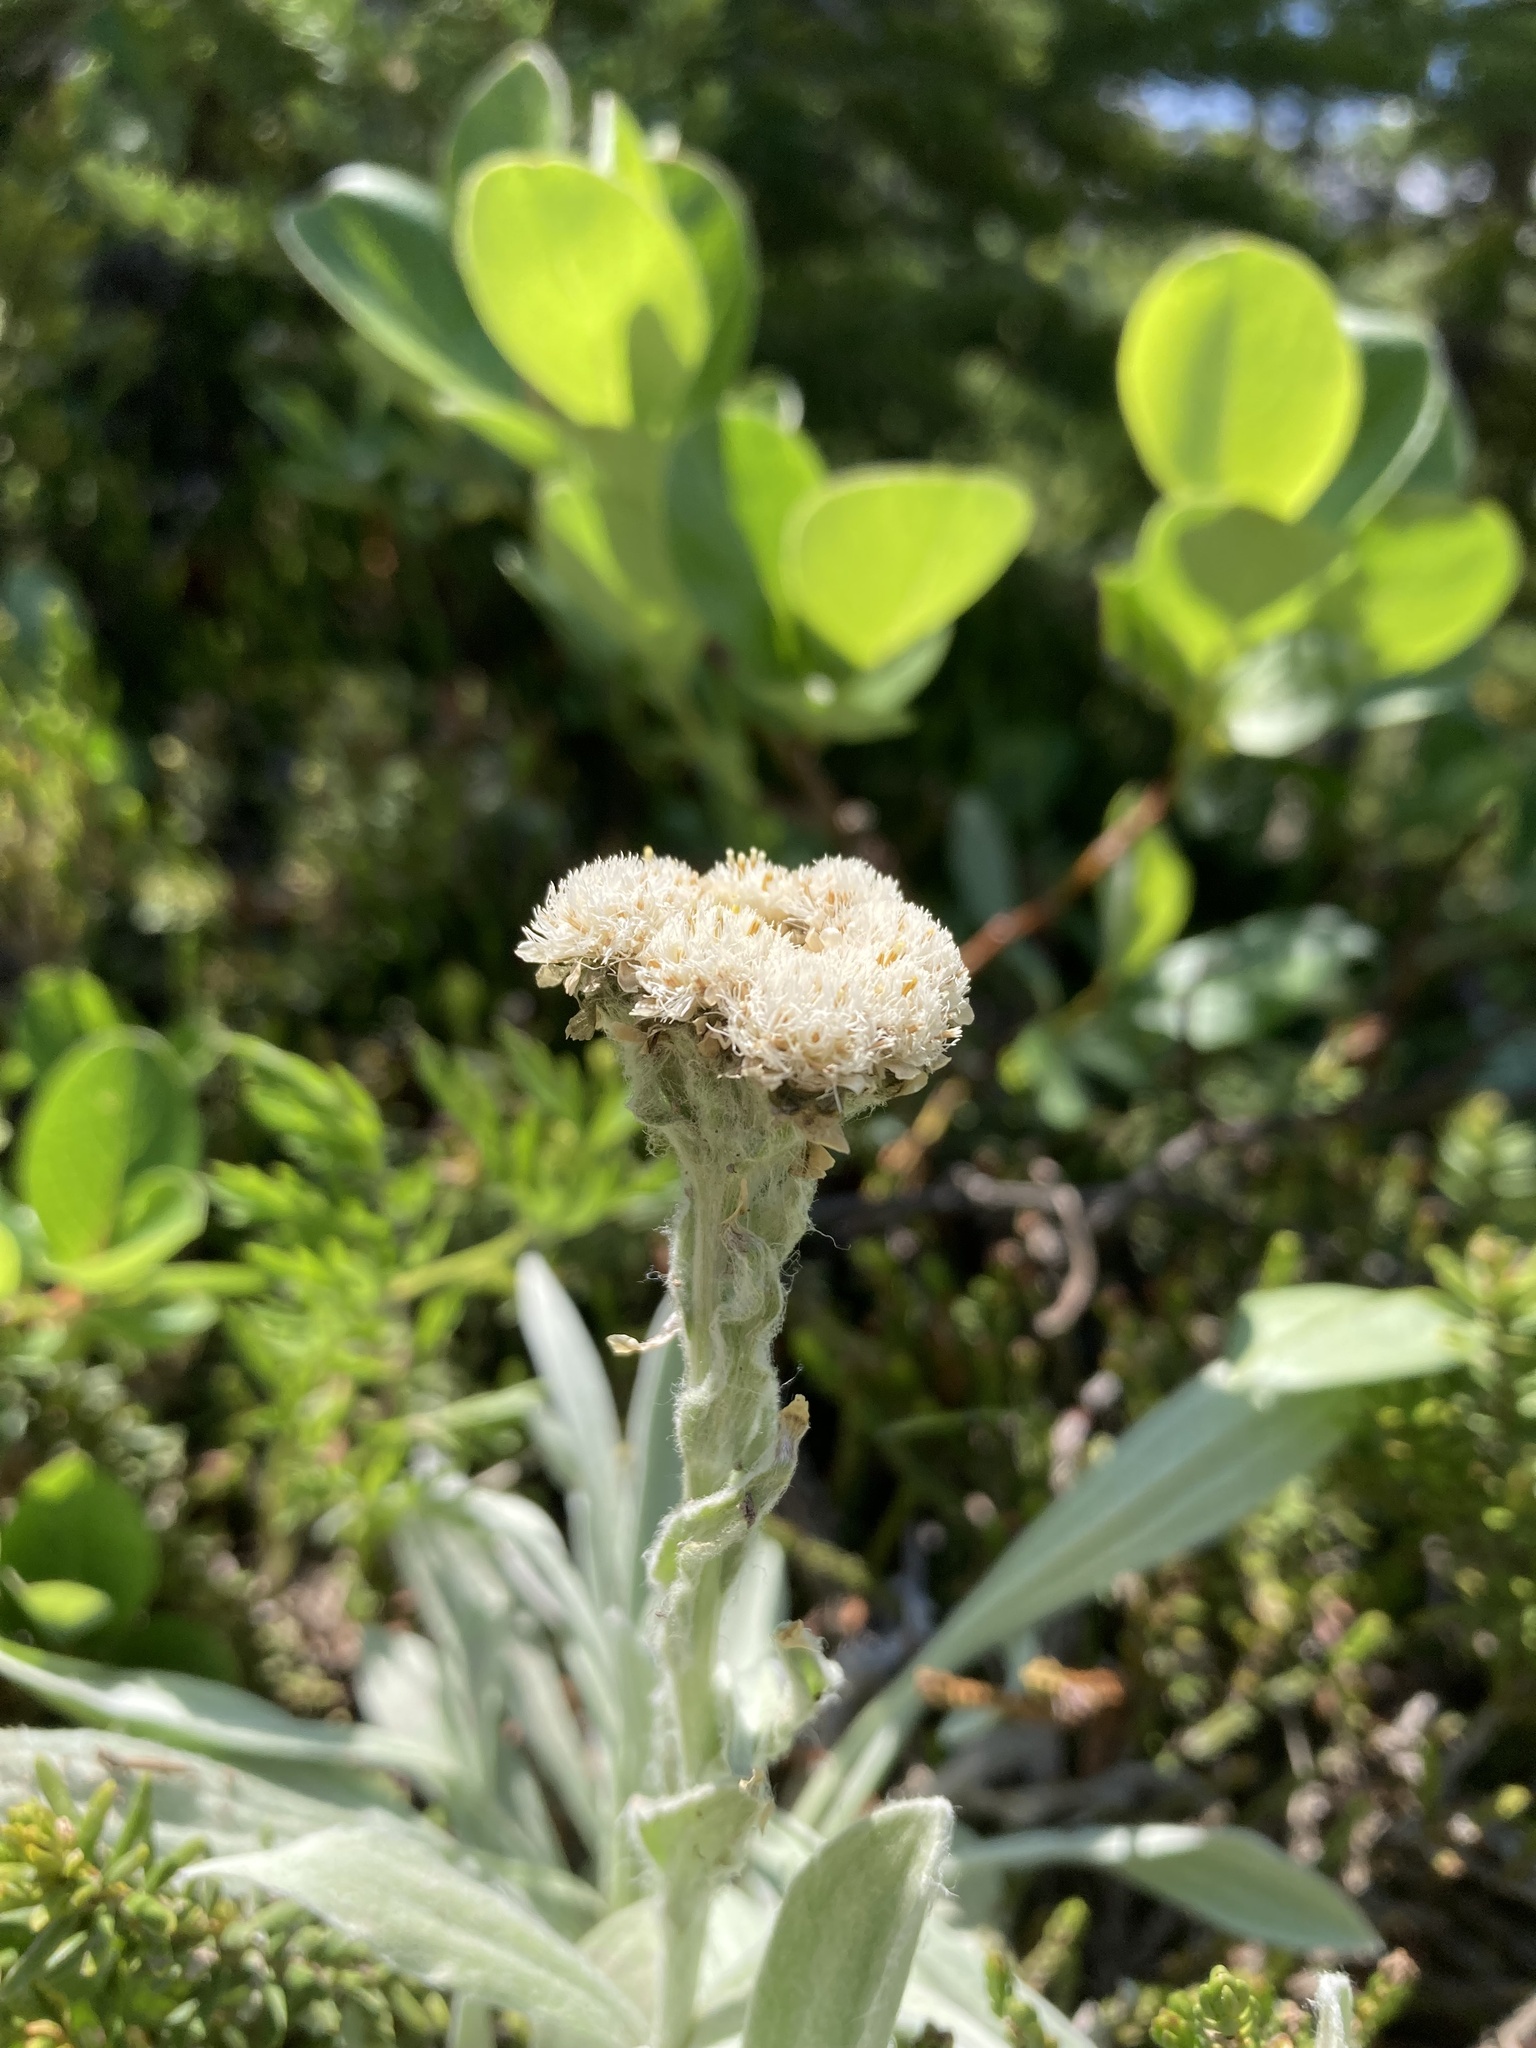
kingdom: Plantae
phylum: Tracheophyta
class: Magnoliopsida
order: Asterales
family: Asteraceae
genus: Antennaria
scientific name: Antennaria lanata
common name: Woolly pussytoes
